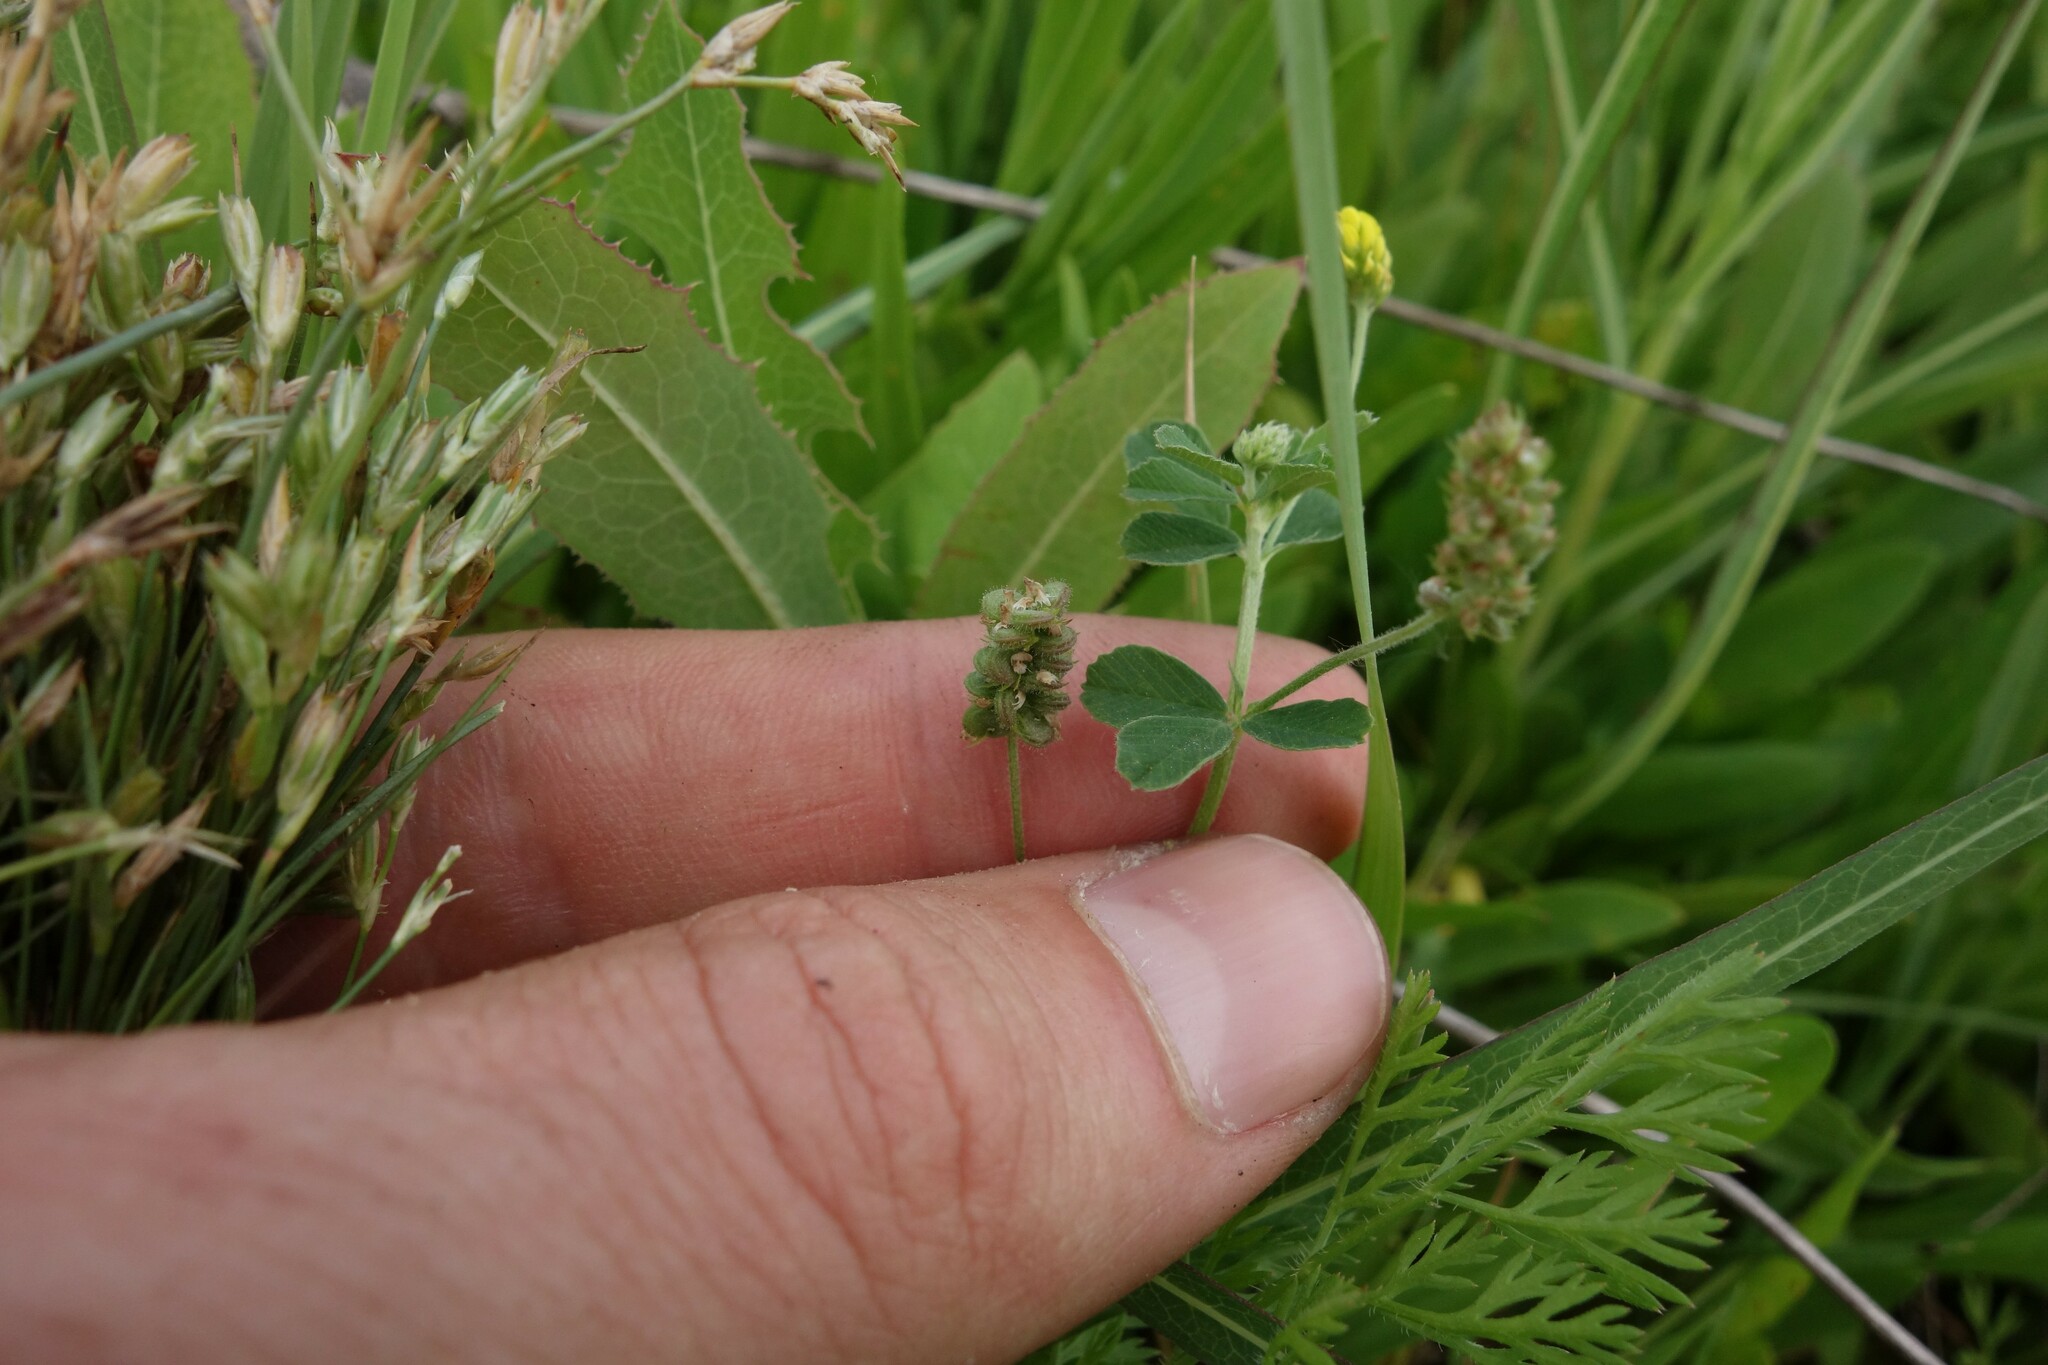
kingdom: Plantae
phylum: Tracheophyta
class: Magnoliopsida
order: Fabales
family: Fabaceae
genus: Medicago
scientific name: Medicago lupulina
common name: Black medick
